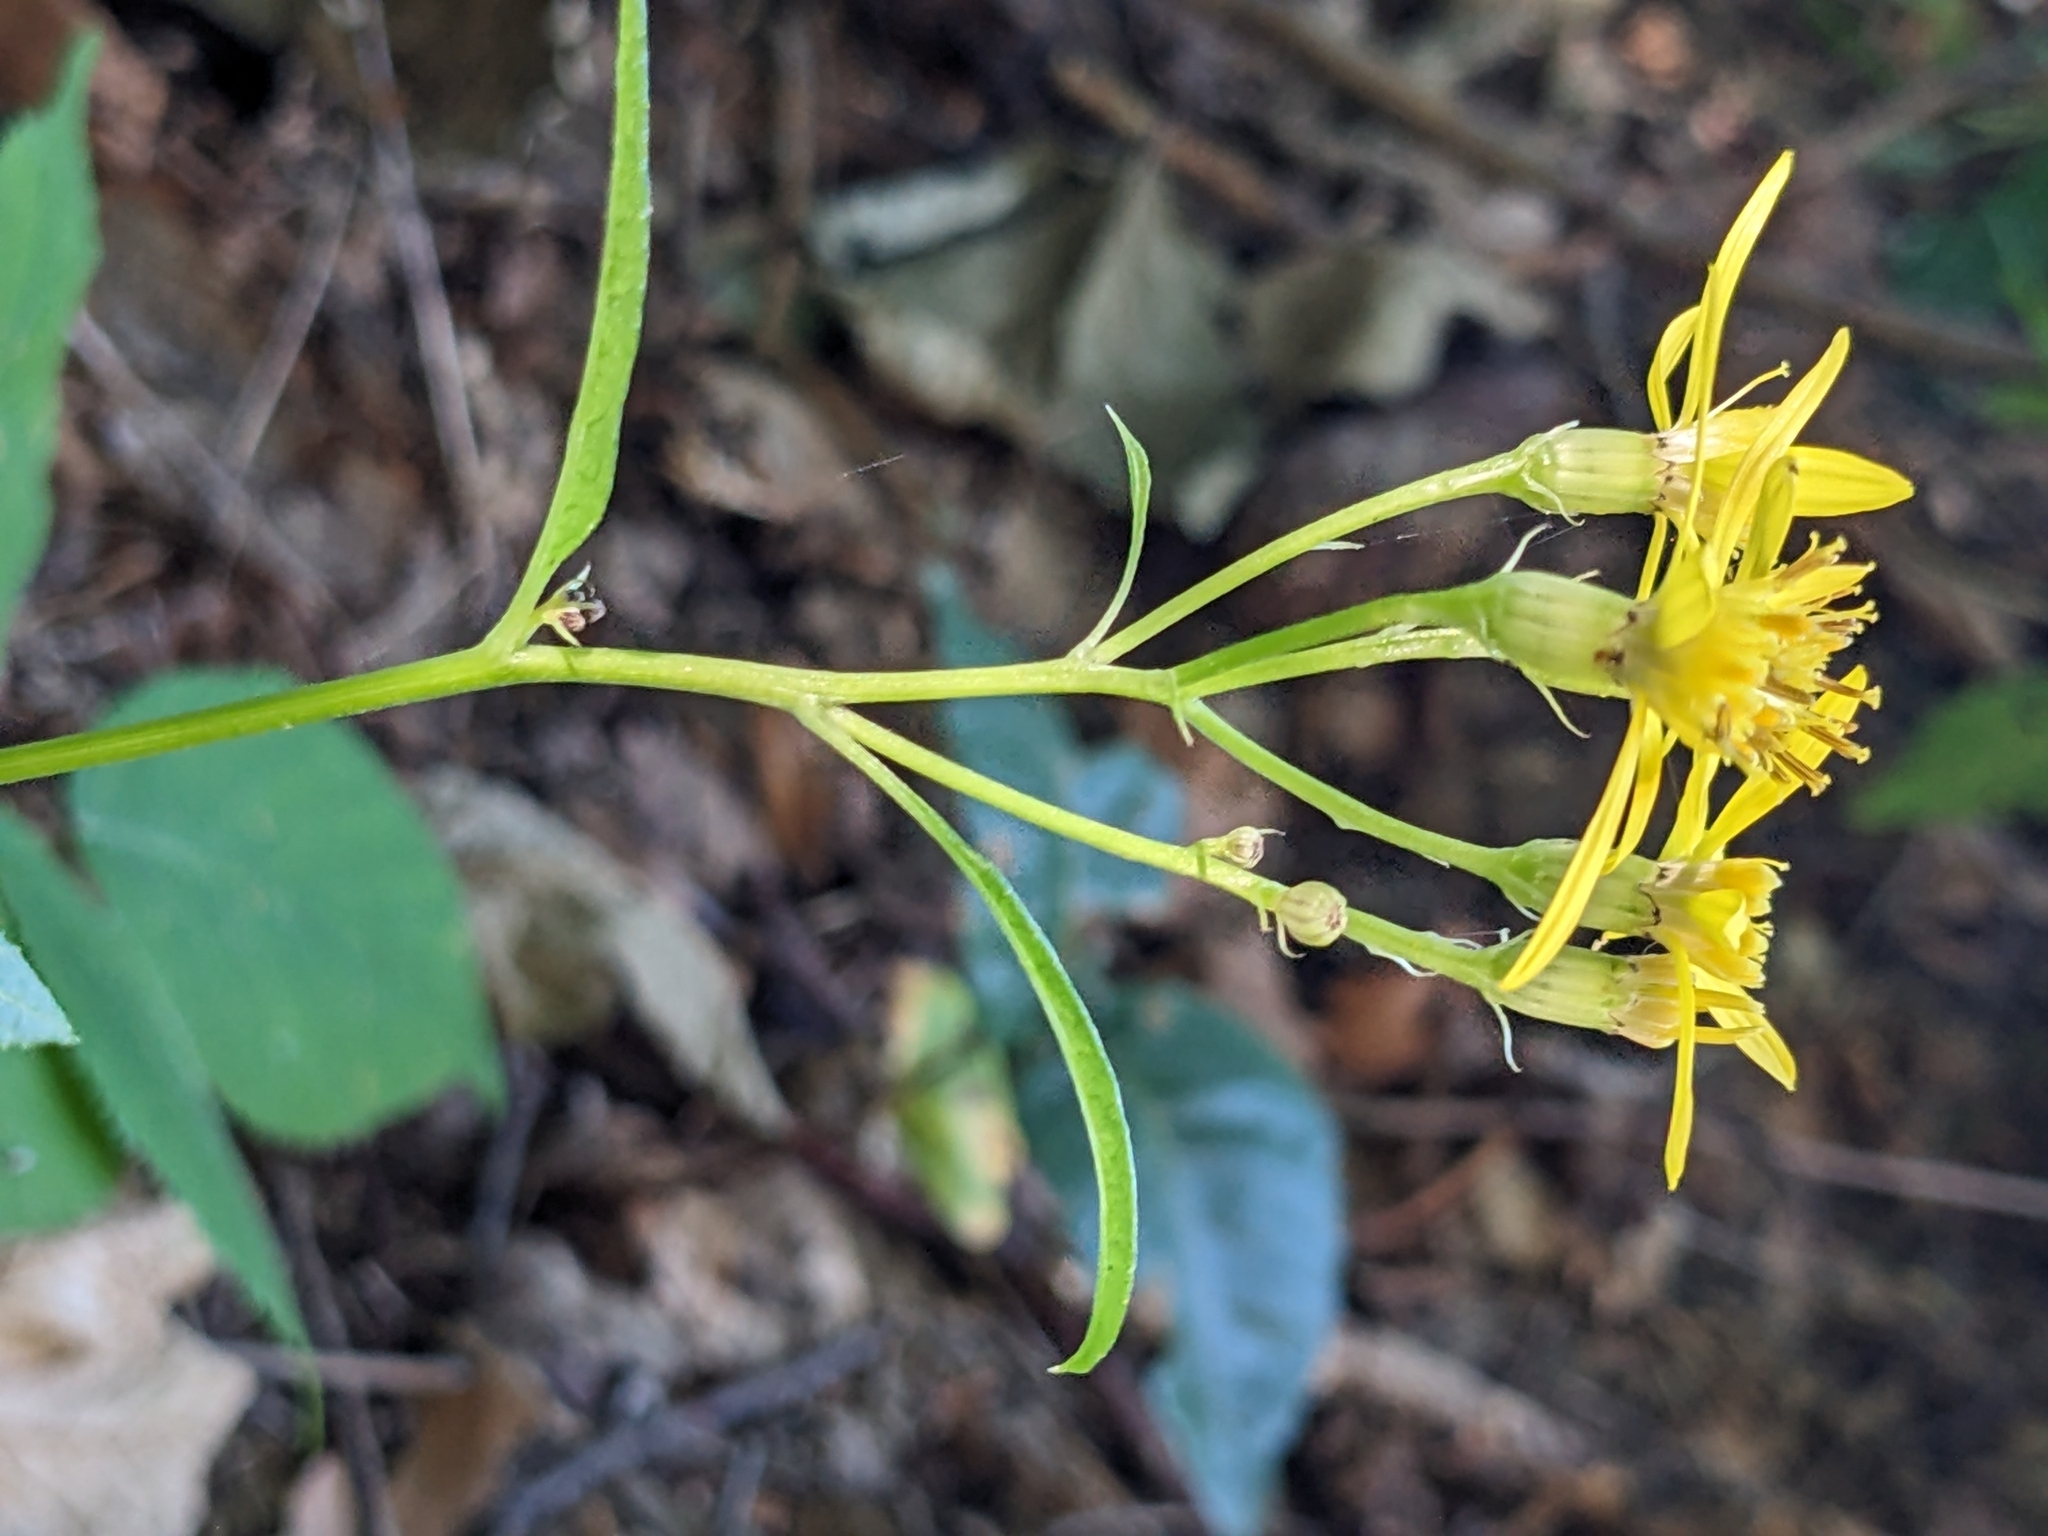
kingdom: Plantae
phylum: Tracheophyta
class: Magnoliopsida
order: Asterales
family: Asteraceae
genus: Senecio
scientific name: Senecio ovatus
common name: Wood ragwort
